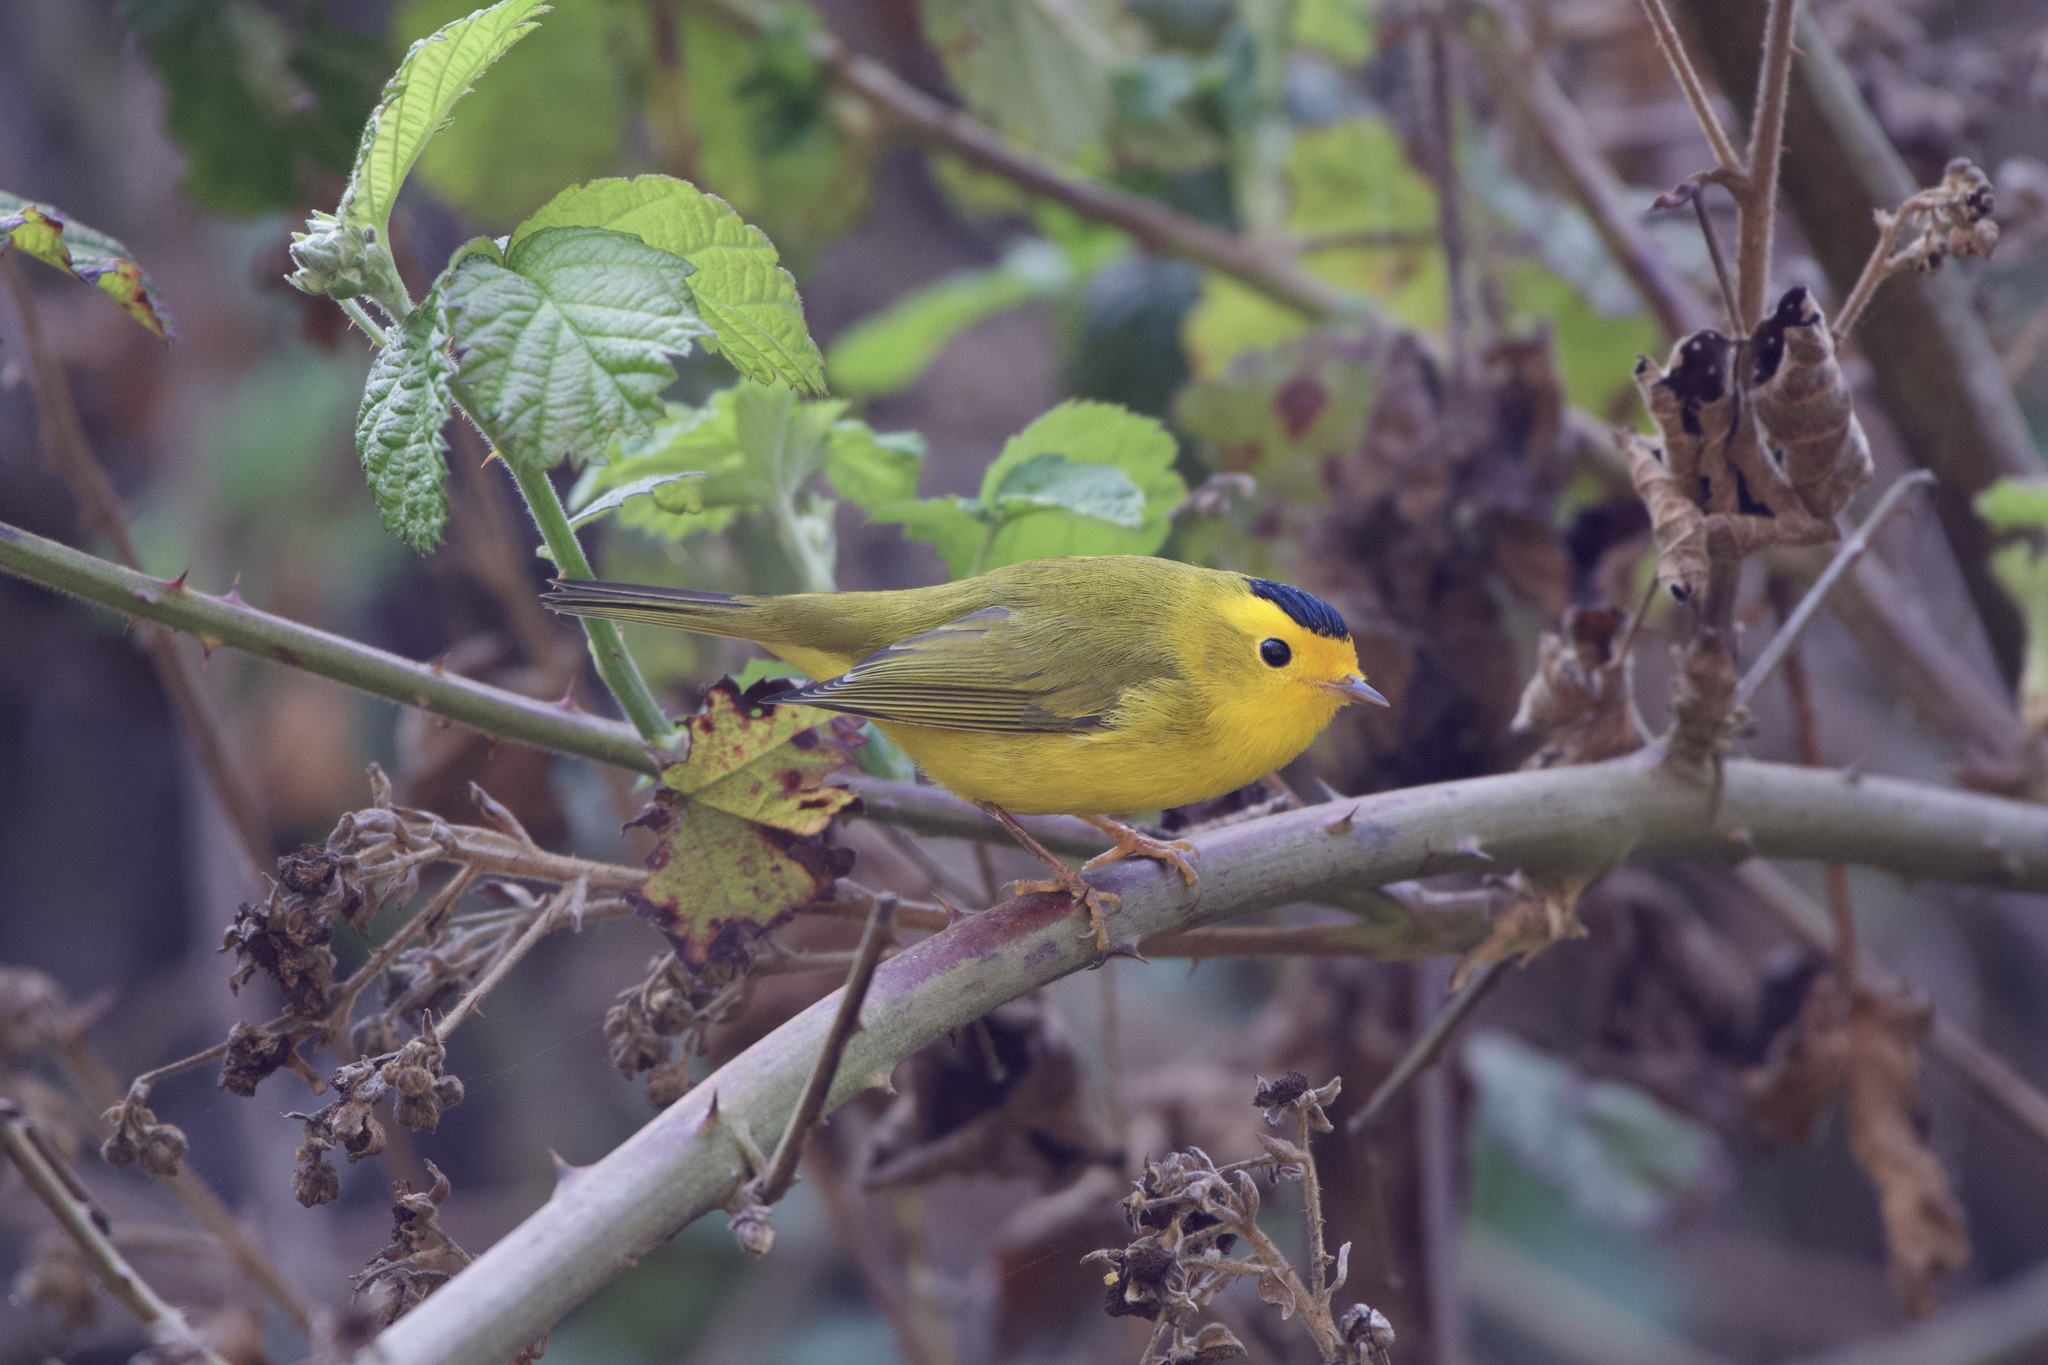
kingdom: Animalia
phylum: Chordata
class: Aves
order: Passeriformes
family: Parulidae
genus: Cardellina
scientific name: Cardellina pusilla
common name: Wilson's warbler
